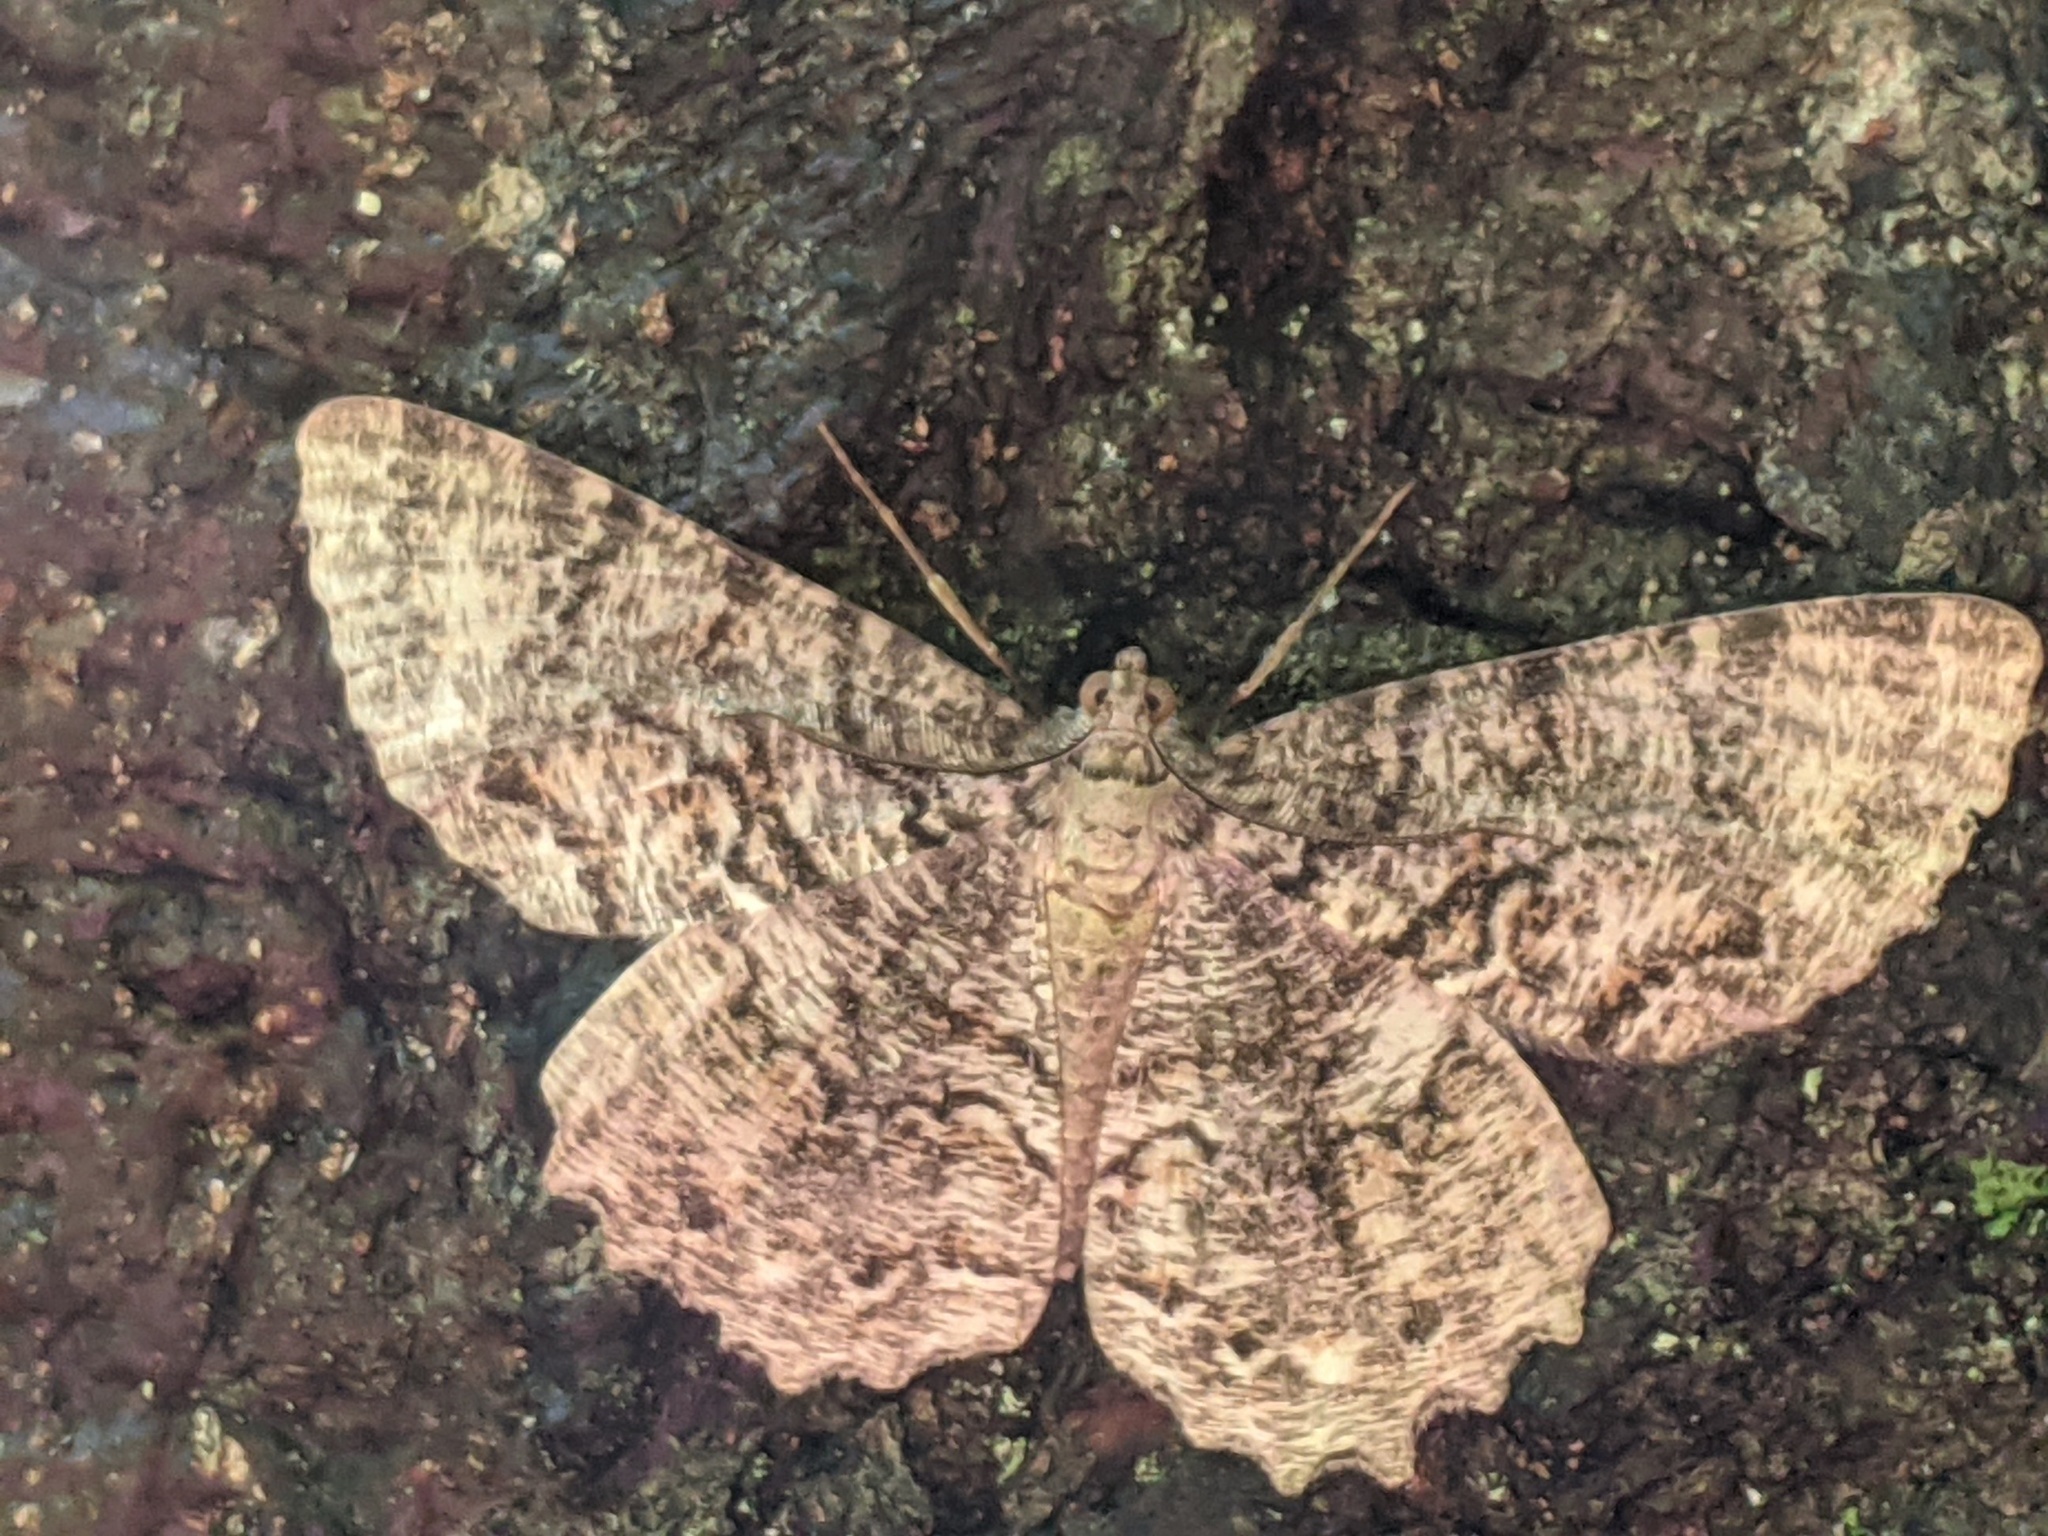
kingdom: Animalia
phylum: Arthropoda
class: Insecta
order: Lepidoptera
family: Geometridae
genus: Epimecis
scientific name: Epimecis hortaria
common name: Tulip-tree beauty
